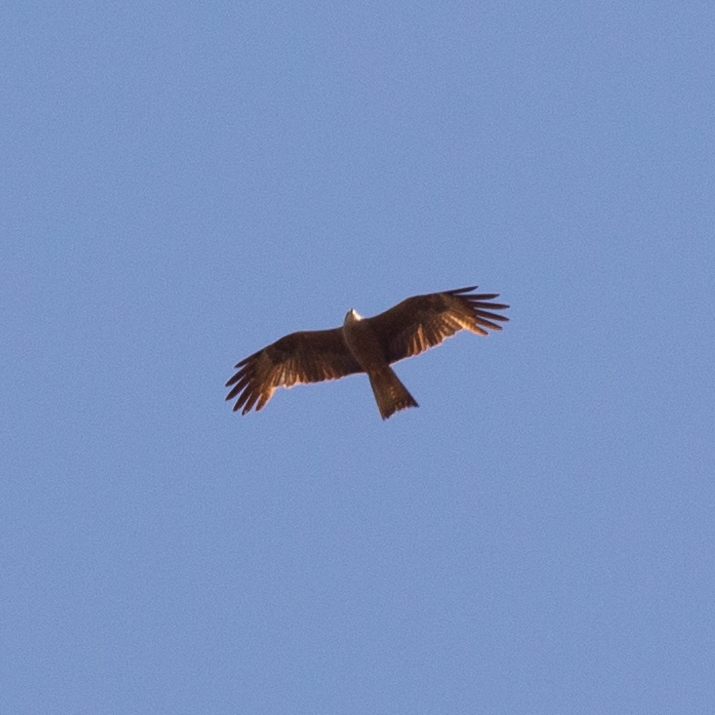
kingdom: Animalia
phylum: Chordata
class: Aves
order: Accipitriformes
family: Accipitridae
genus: Milvus
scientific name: Milvus migrans
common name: Black kite
